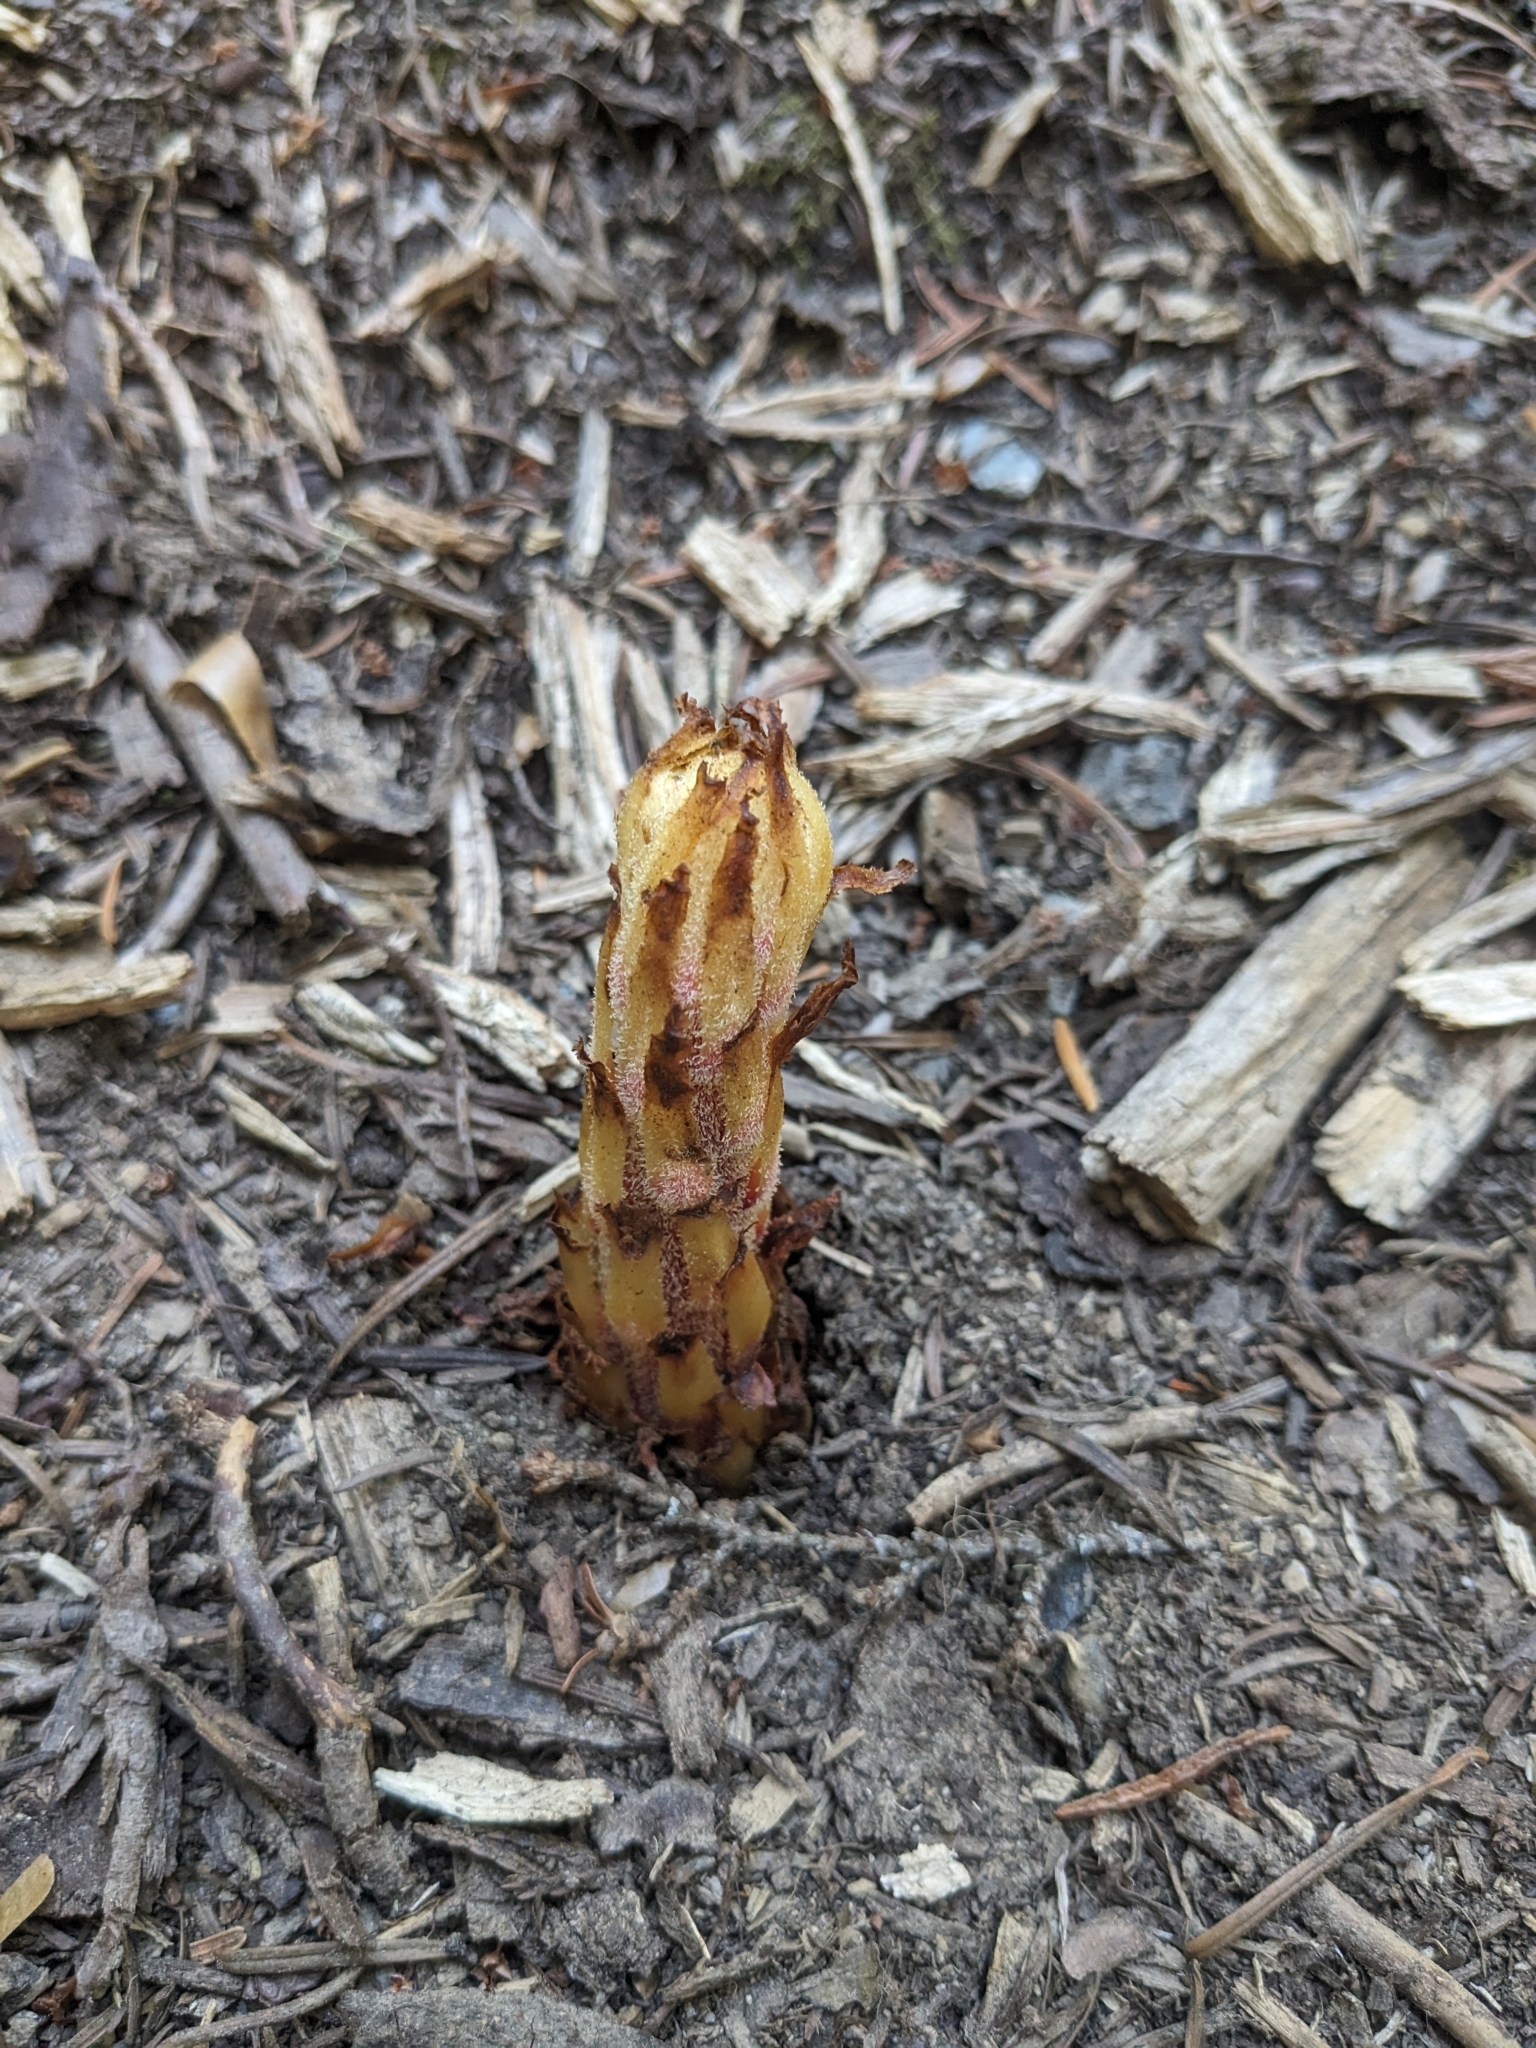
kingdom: Plantae
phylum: Tracheophyta
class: Magnoliopsida
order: Ericales
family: Ericaceae
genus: Pterospora
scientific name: Pterospora andromedea
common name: Giant bird's-nest
